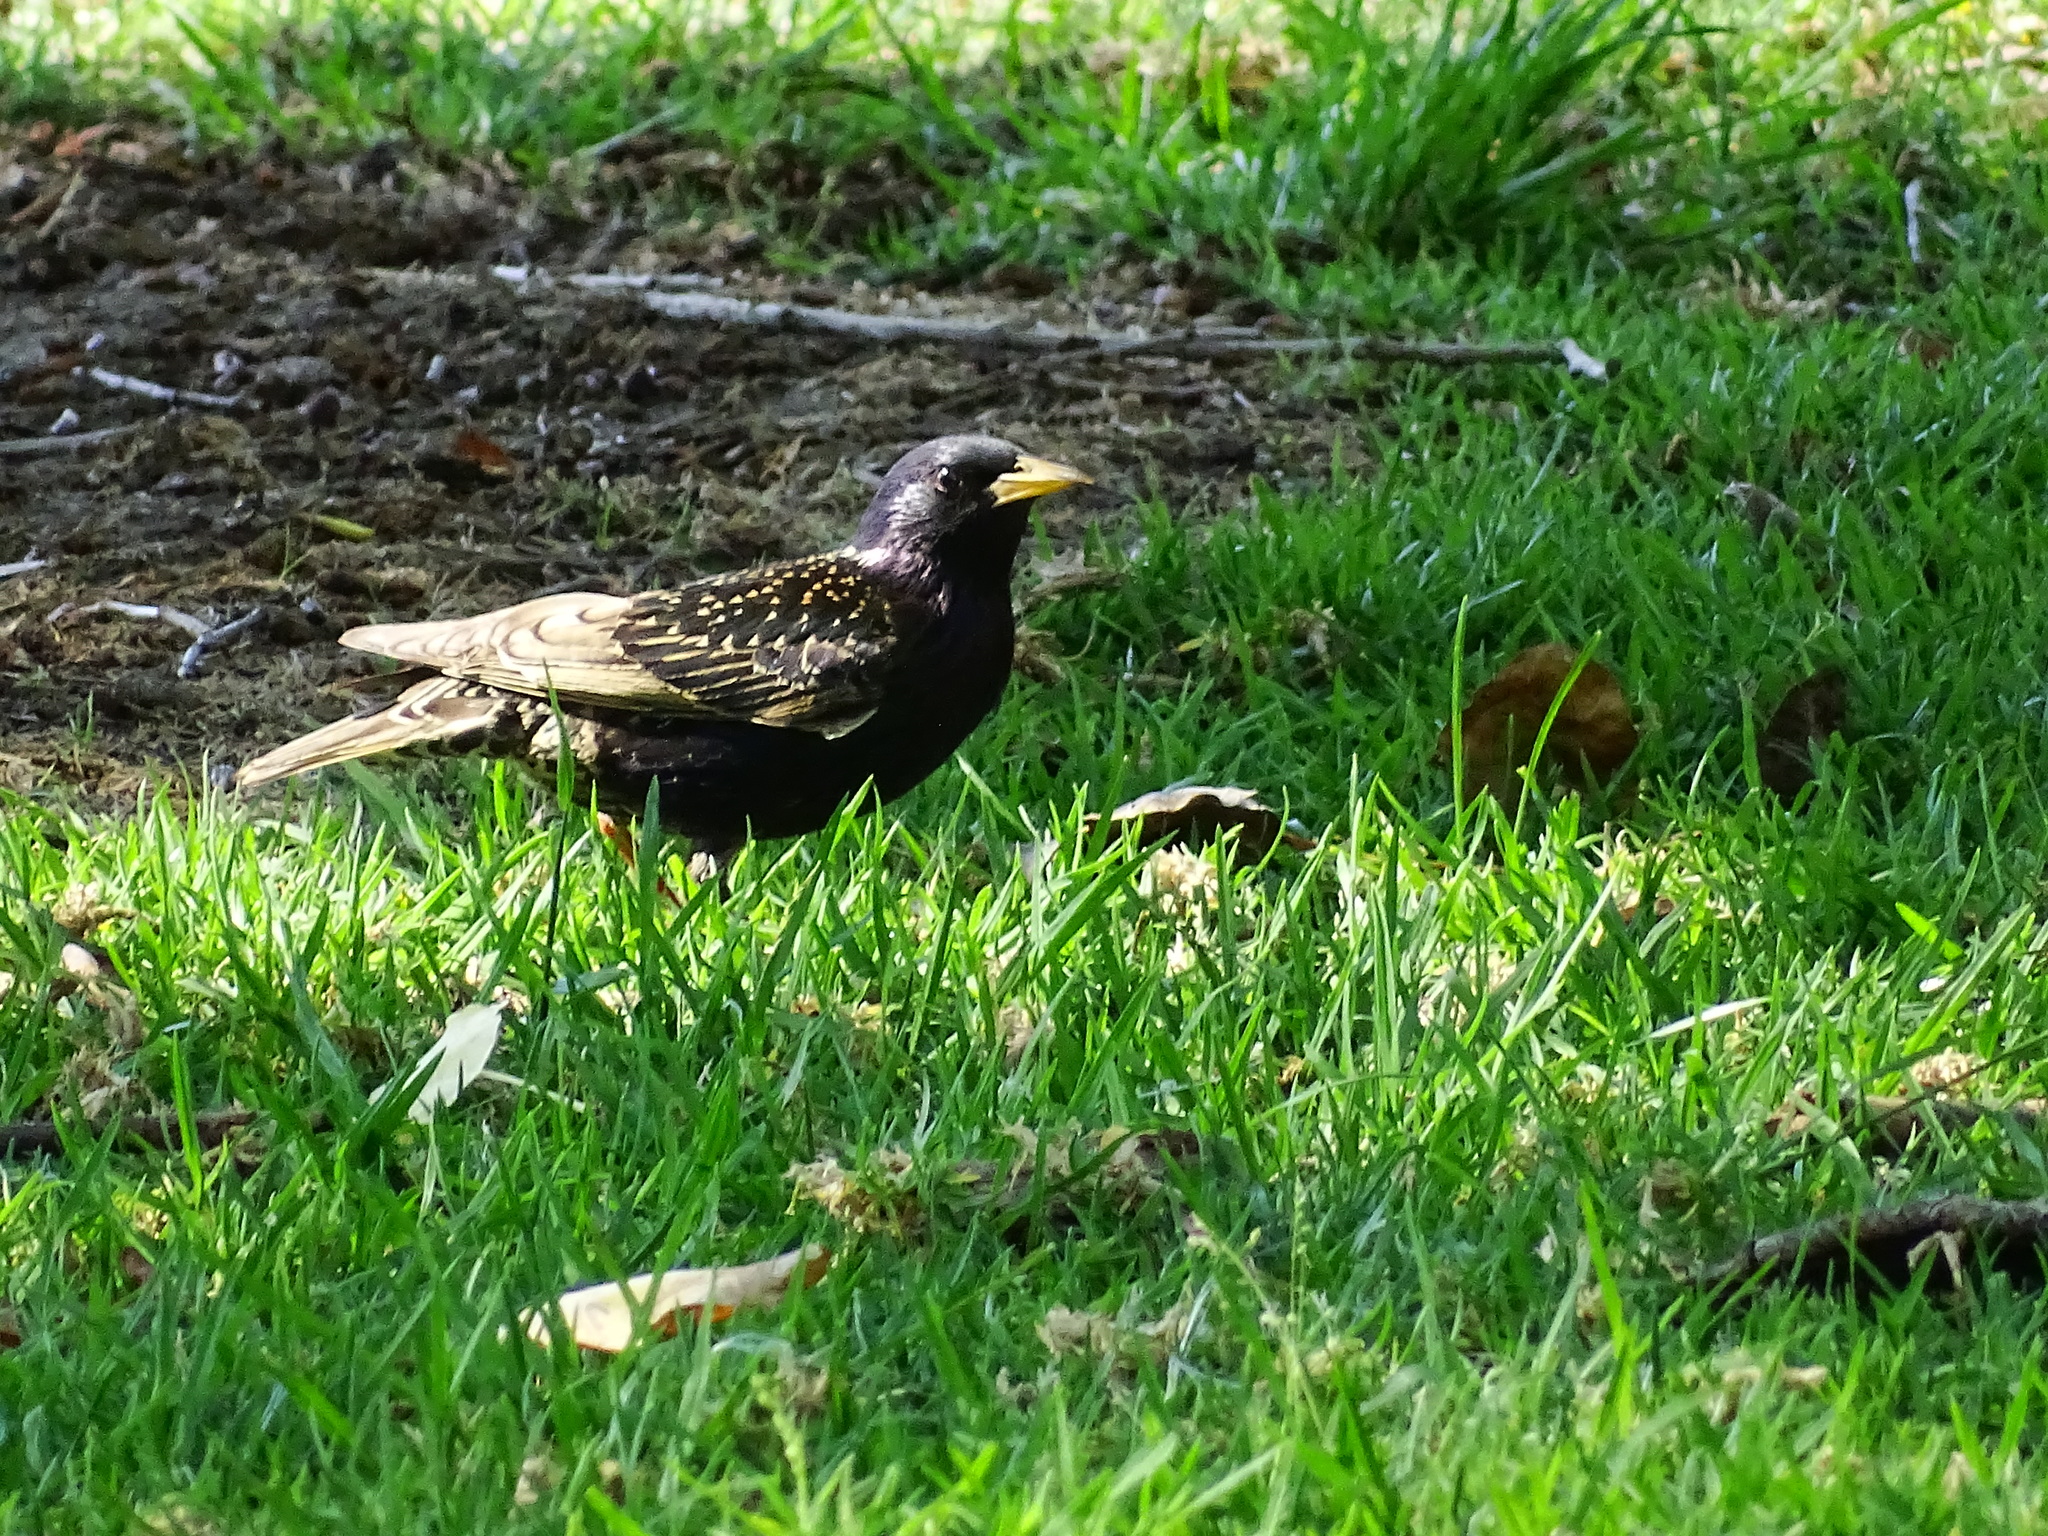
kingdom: Animalia
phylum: Chordata
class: Aves
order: Passeriformes
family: Sturnidae
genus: Sturnus
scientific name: Sturnus vulgaris
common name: Common starling
